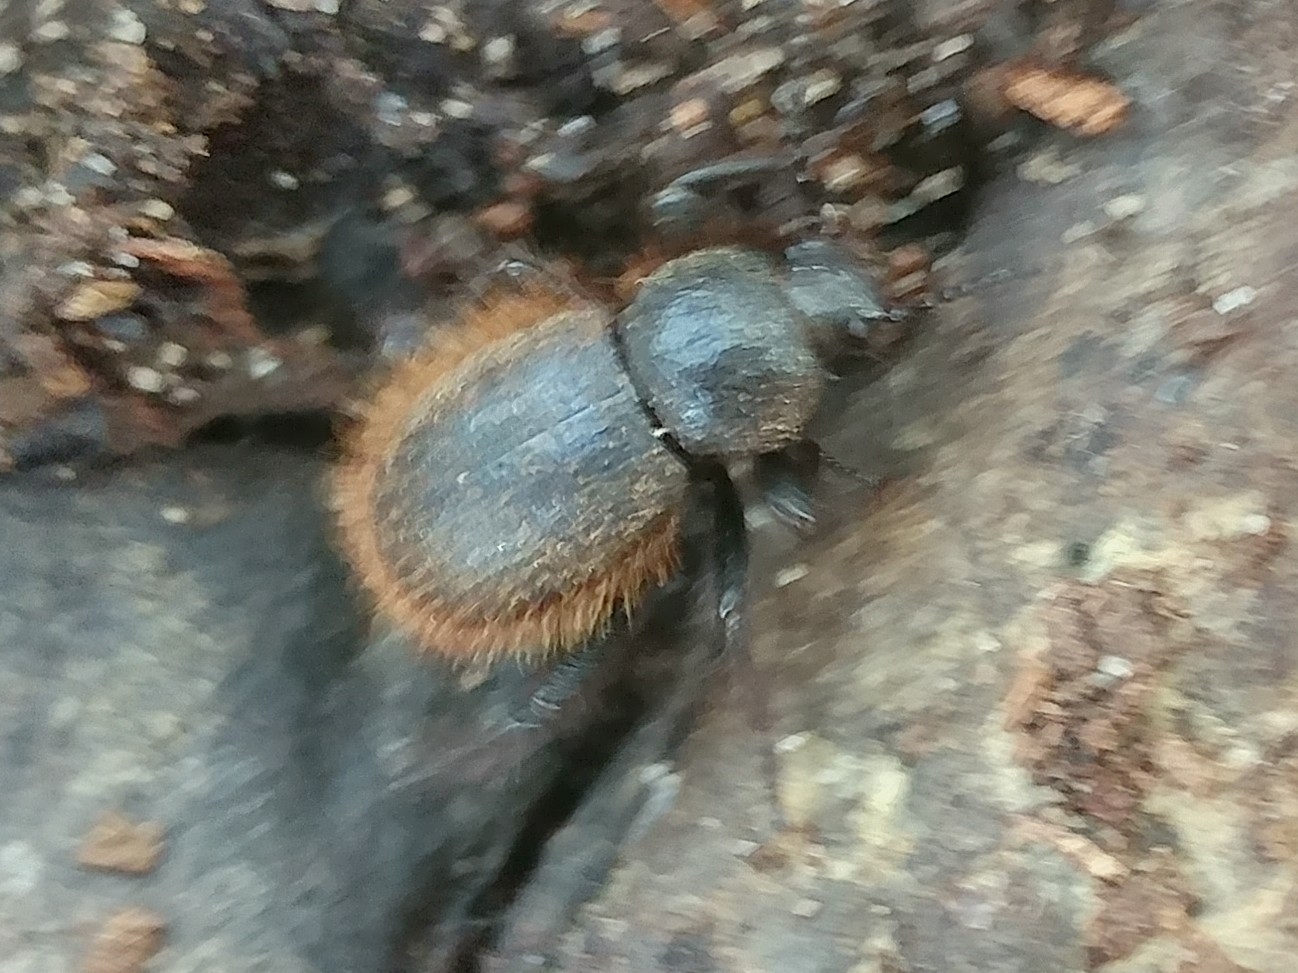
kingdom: Animalia
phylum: Arthropoda
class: Insecta
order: Coleoptera
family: Tenebrionidae
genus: Eleodes
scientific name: Eleodes osculans
